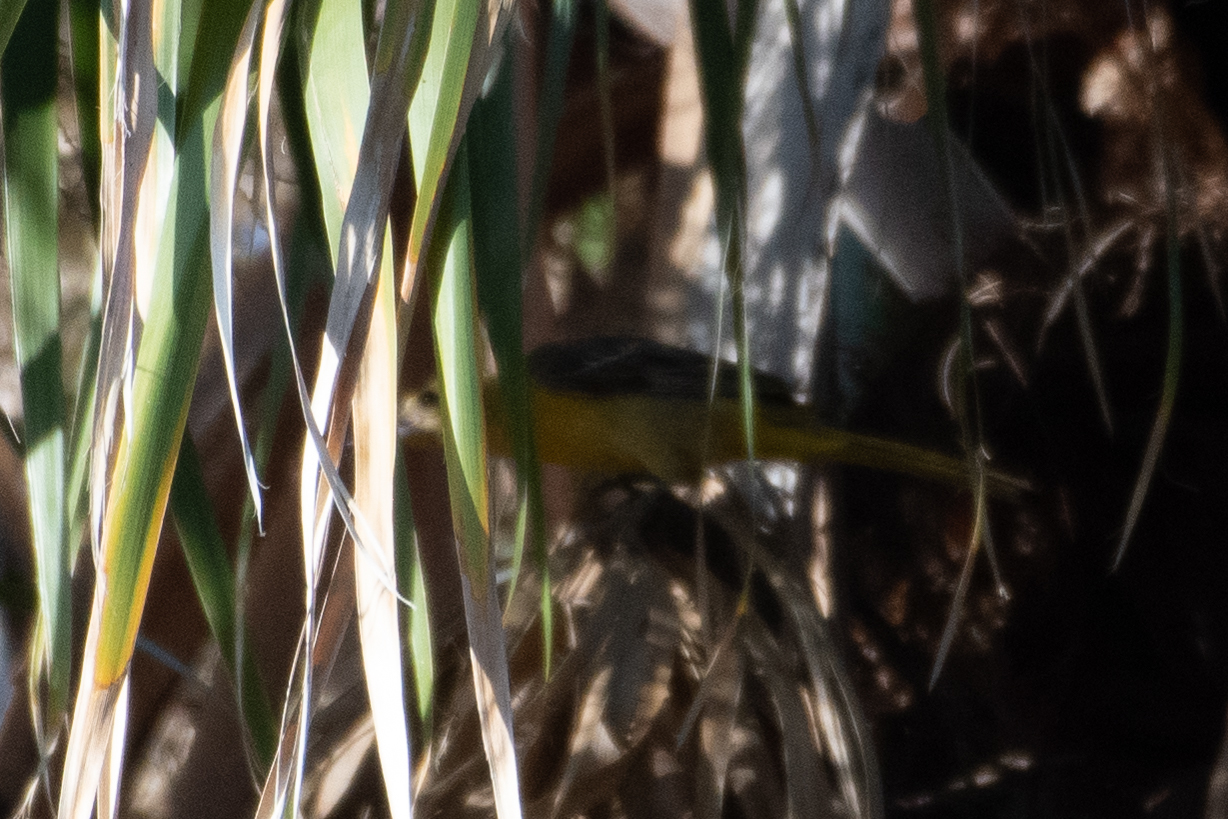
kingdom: Animalia
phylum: Chordata
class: Aves
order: Passeriformes
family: Icteridae
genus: Icterus
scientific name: Icterus cucullatus
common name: Hooded oriole
